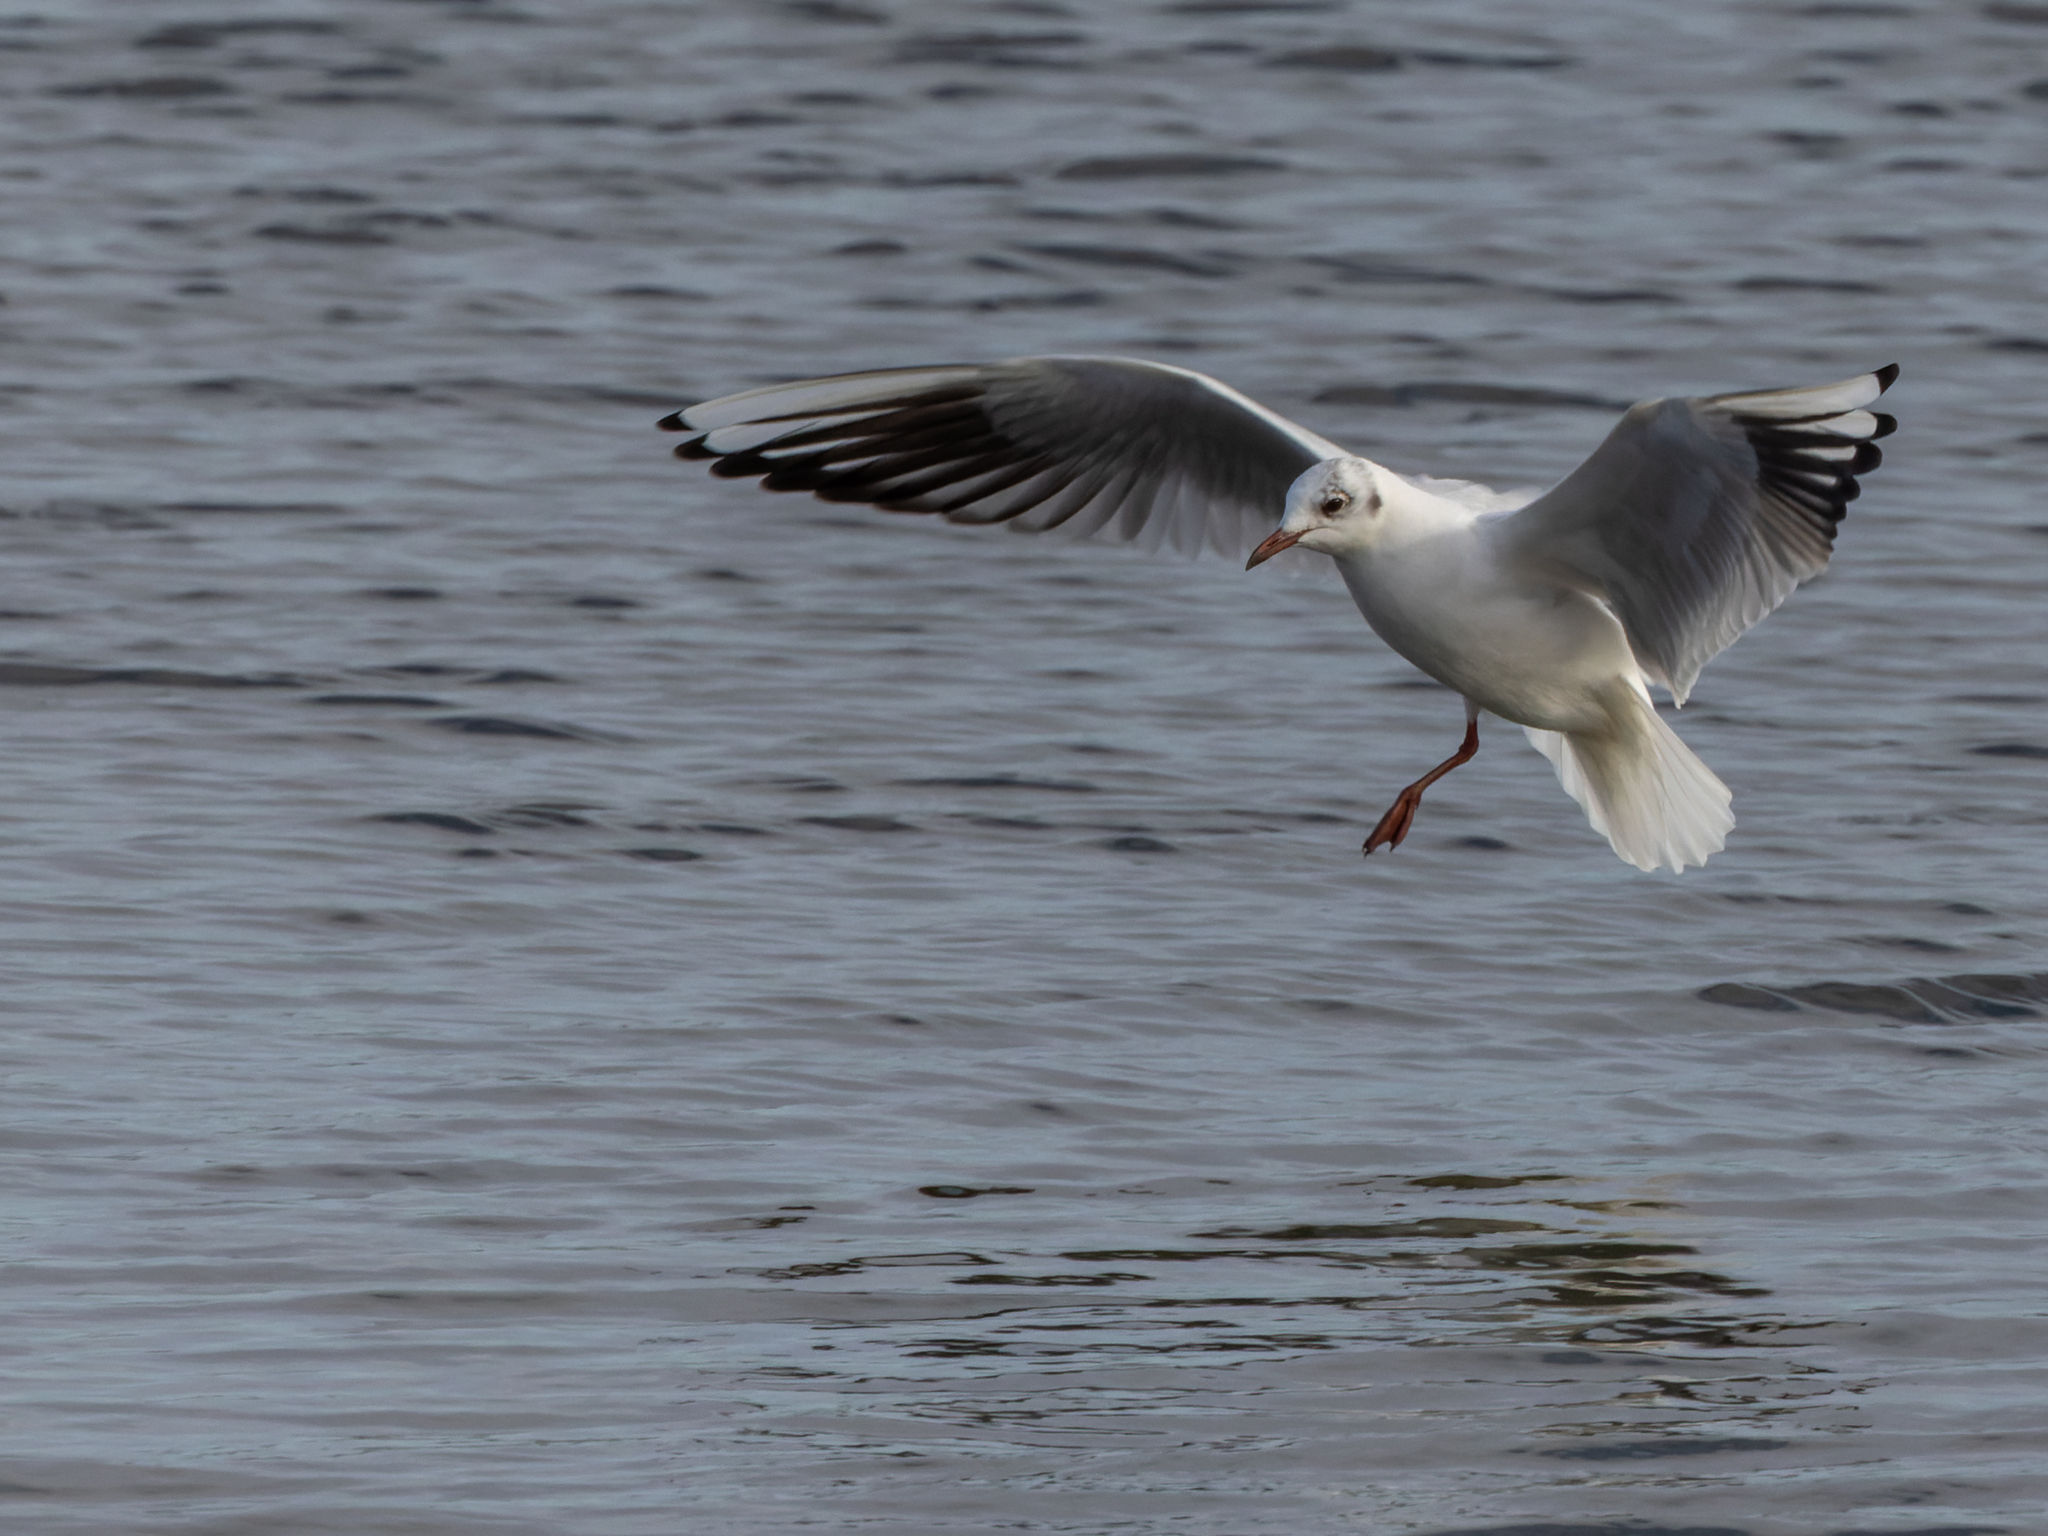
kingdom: Animalia
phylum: Chordata
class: Aves
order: Charadriiformes
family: Laridae
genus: Chroicocephalus
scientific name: Chroicocephalus ridibundus
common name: Black-headed gull
